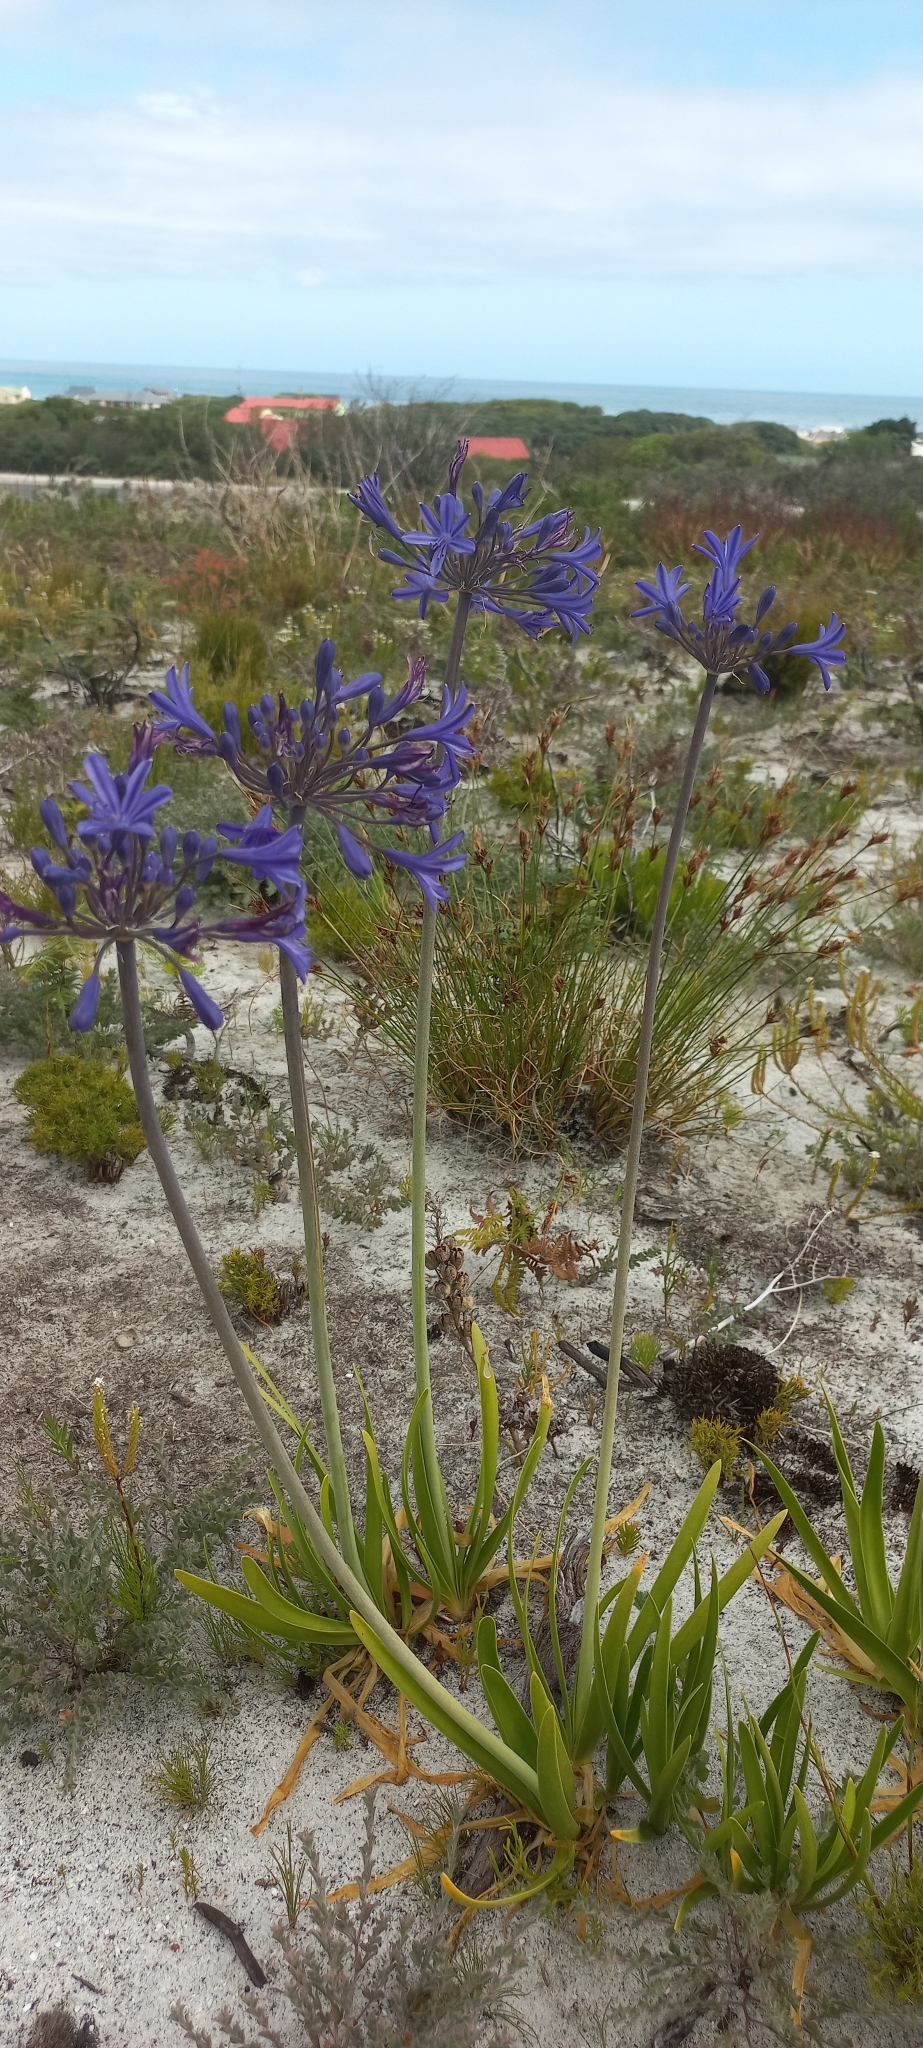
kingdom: Plantae
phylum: Tracheophyta
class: Liliopsida
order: Asparagales
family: Amaryllidaceae
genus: Agapanthus
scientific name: Agapanthus africanus
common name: Lily-of-the-nile
